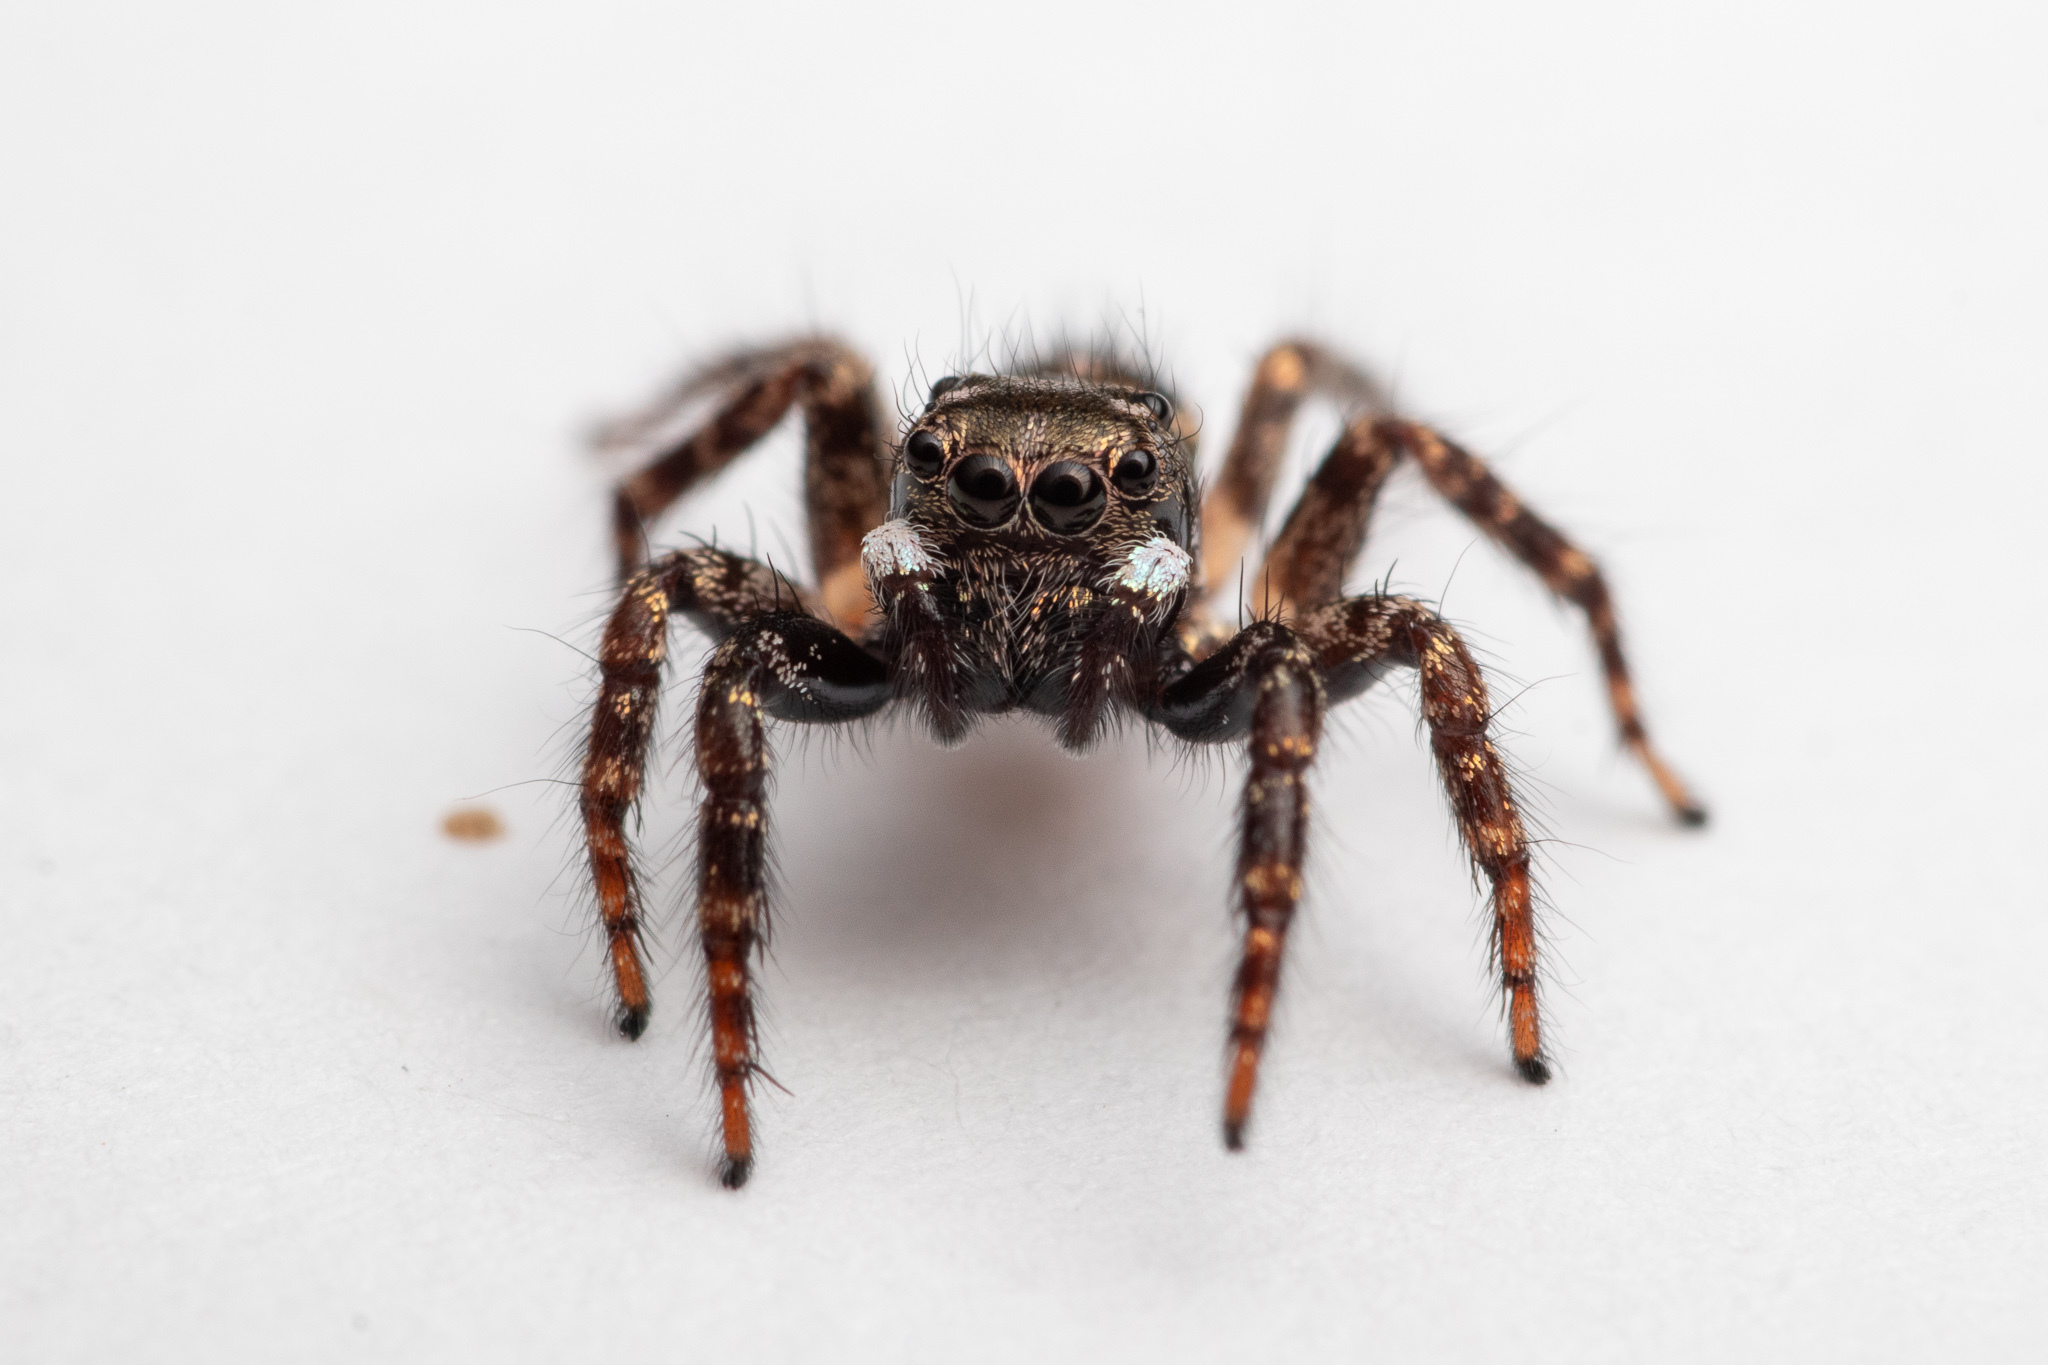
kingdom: Animalia
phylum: Arthropoda
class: Arachnida
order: Araneae
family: Salticidae
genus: Anasaitis
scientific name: Anasaitis canosa
